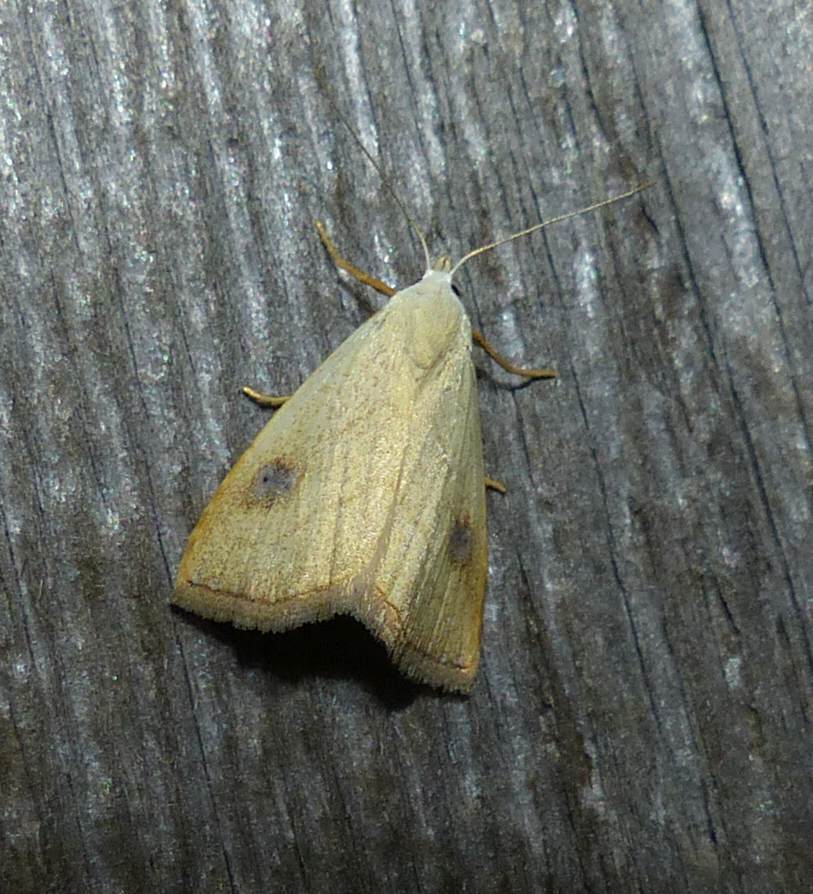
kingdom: Animalia
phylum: Arthropoda
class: Insecta
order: Lepidoptera
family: Erebidae
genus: Rivula
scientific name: Rivula propinqualis
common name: Spotted grass moth
